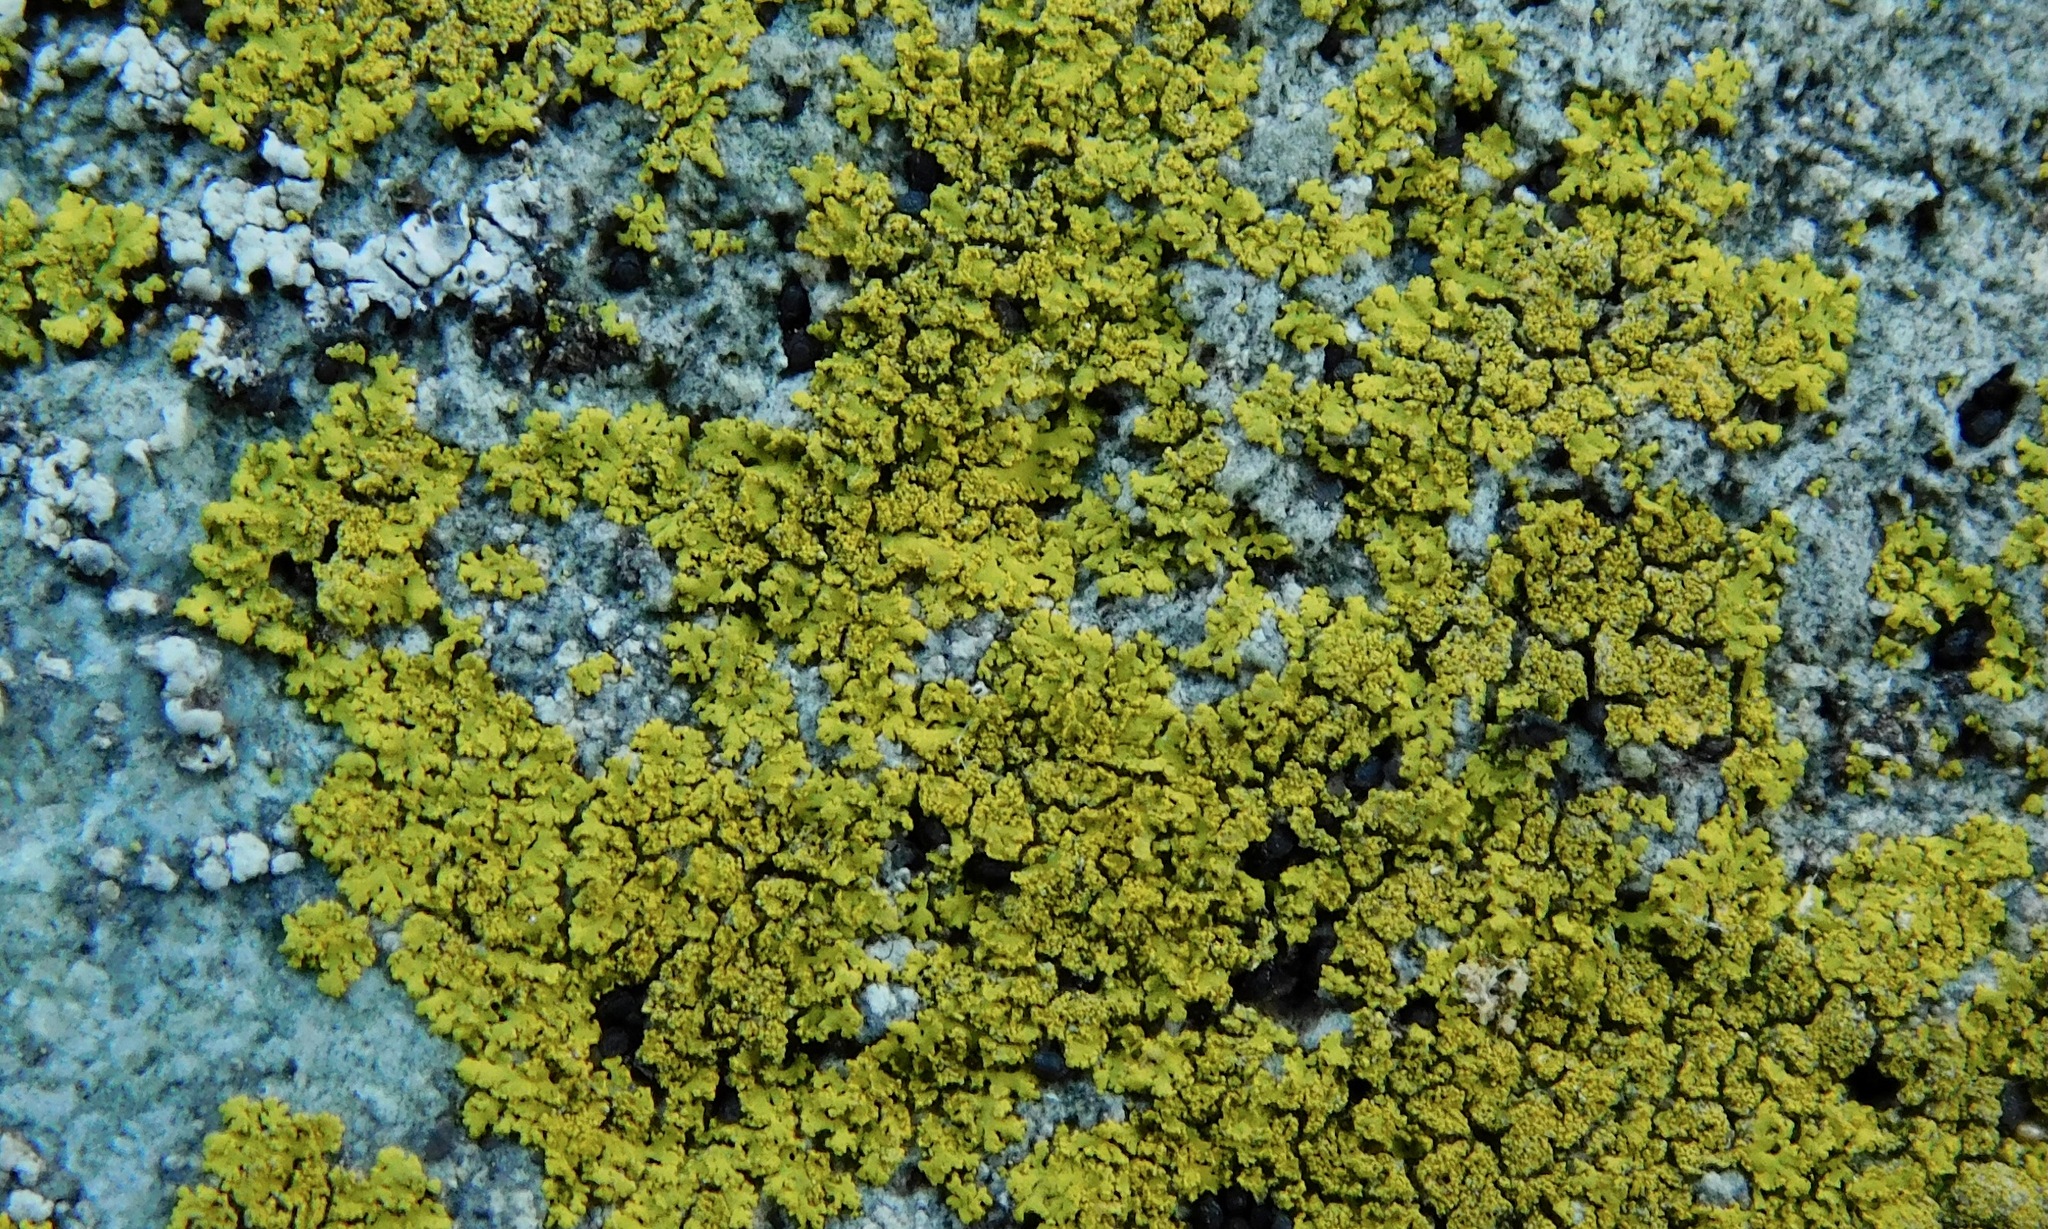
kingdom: Fungi
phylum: Ascomycota
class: Candelariomycetes
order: Candelariales
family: Candelariaceae
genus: Candelaria
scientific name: Candelaria concolor
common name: Candleflame lichen
